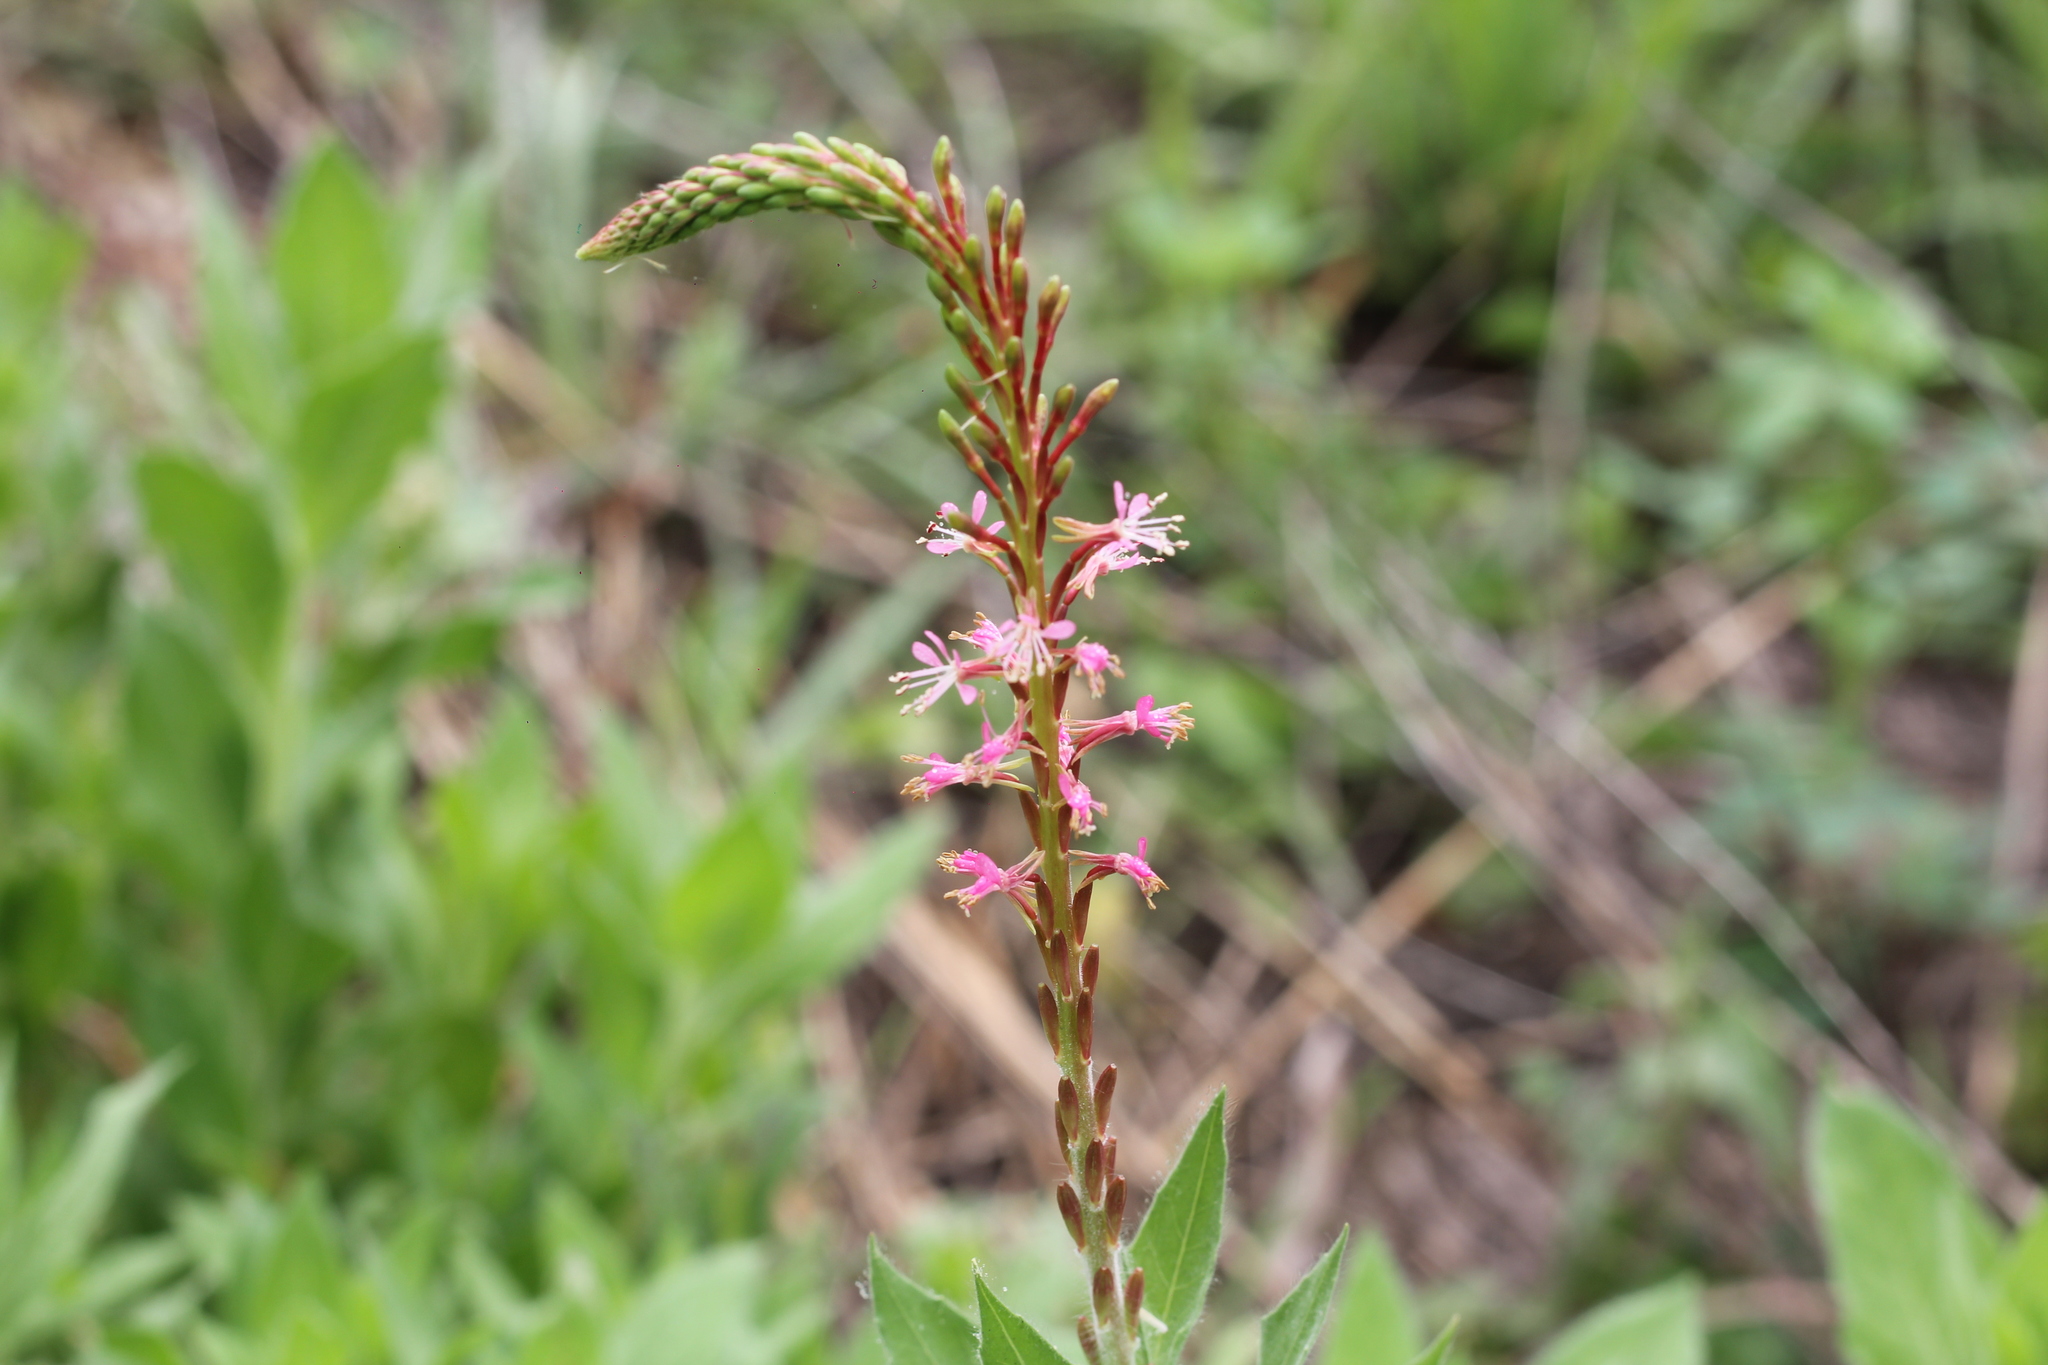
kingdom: Plantae
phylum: Tracheophyta
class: Magnoliopsida
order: Myrtales
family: Onagraceae
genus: Oenothera
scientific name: Oenothera curtiflora
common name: Velvetweed
